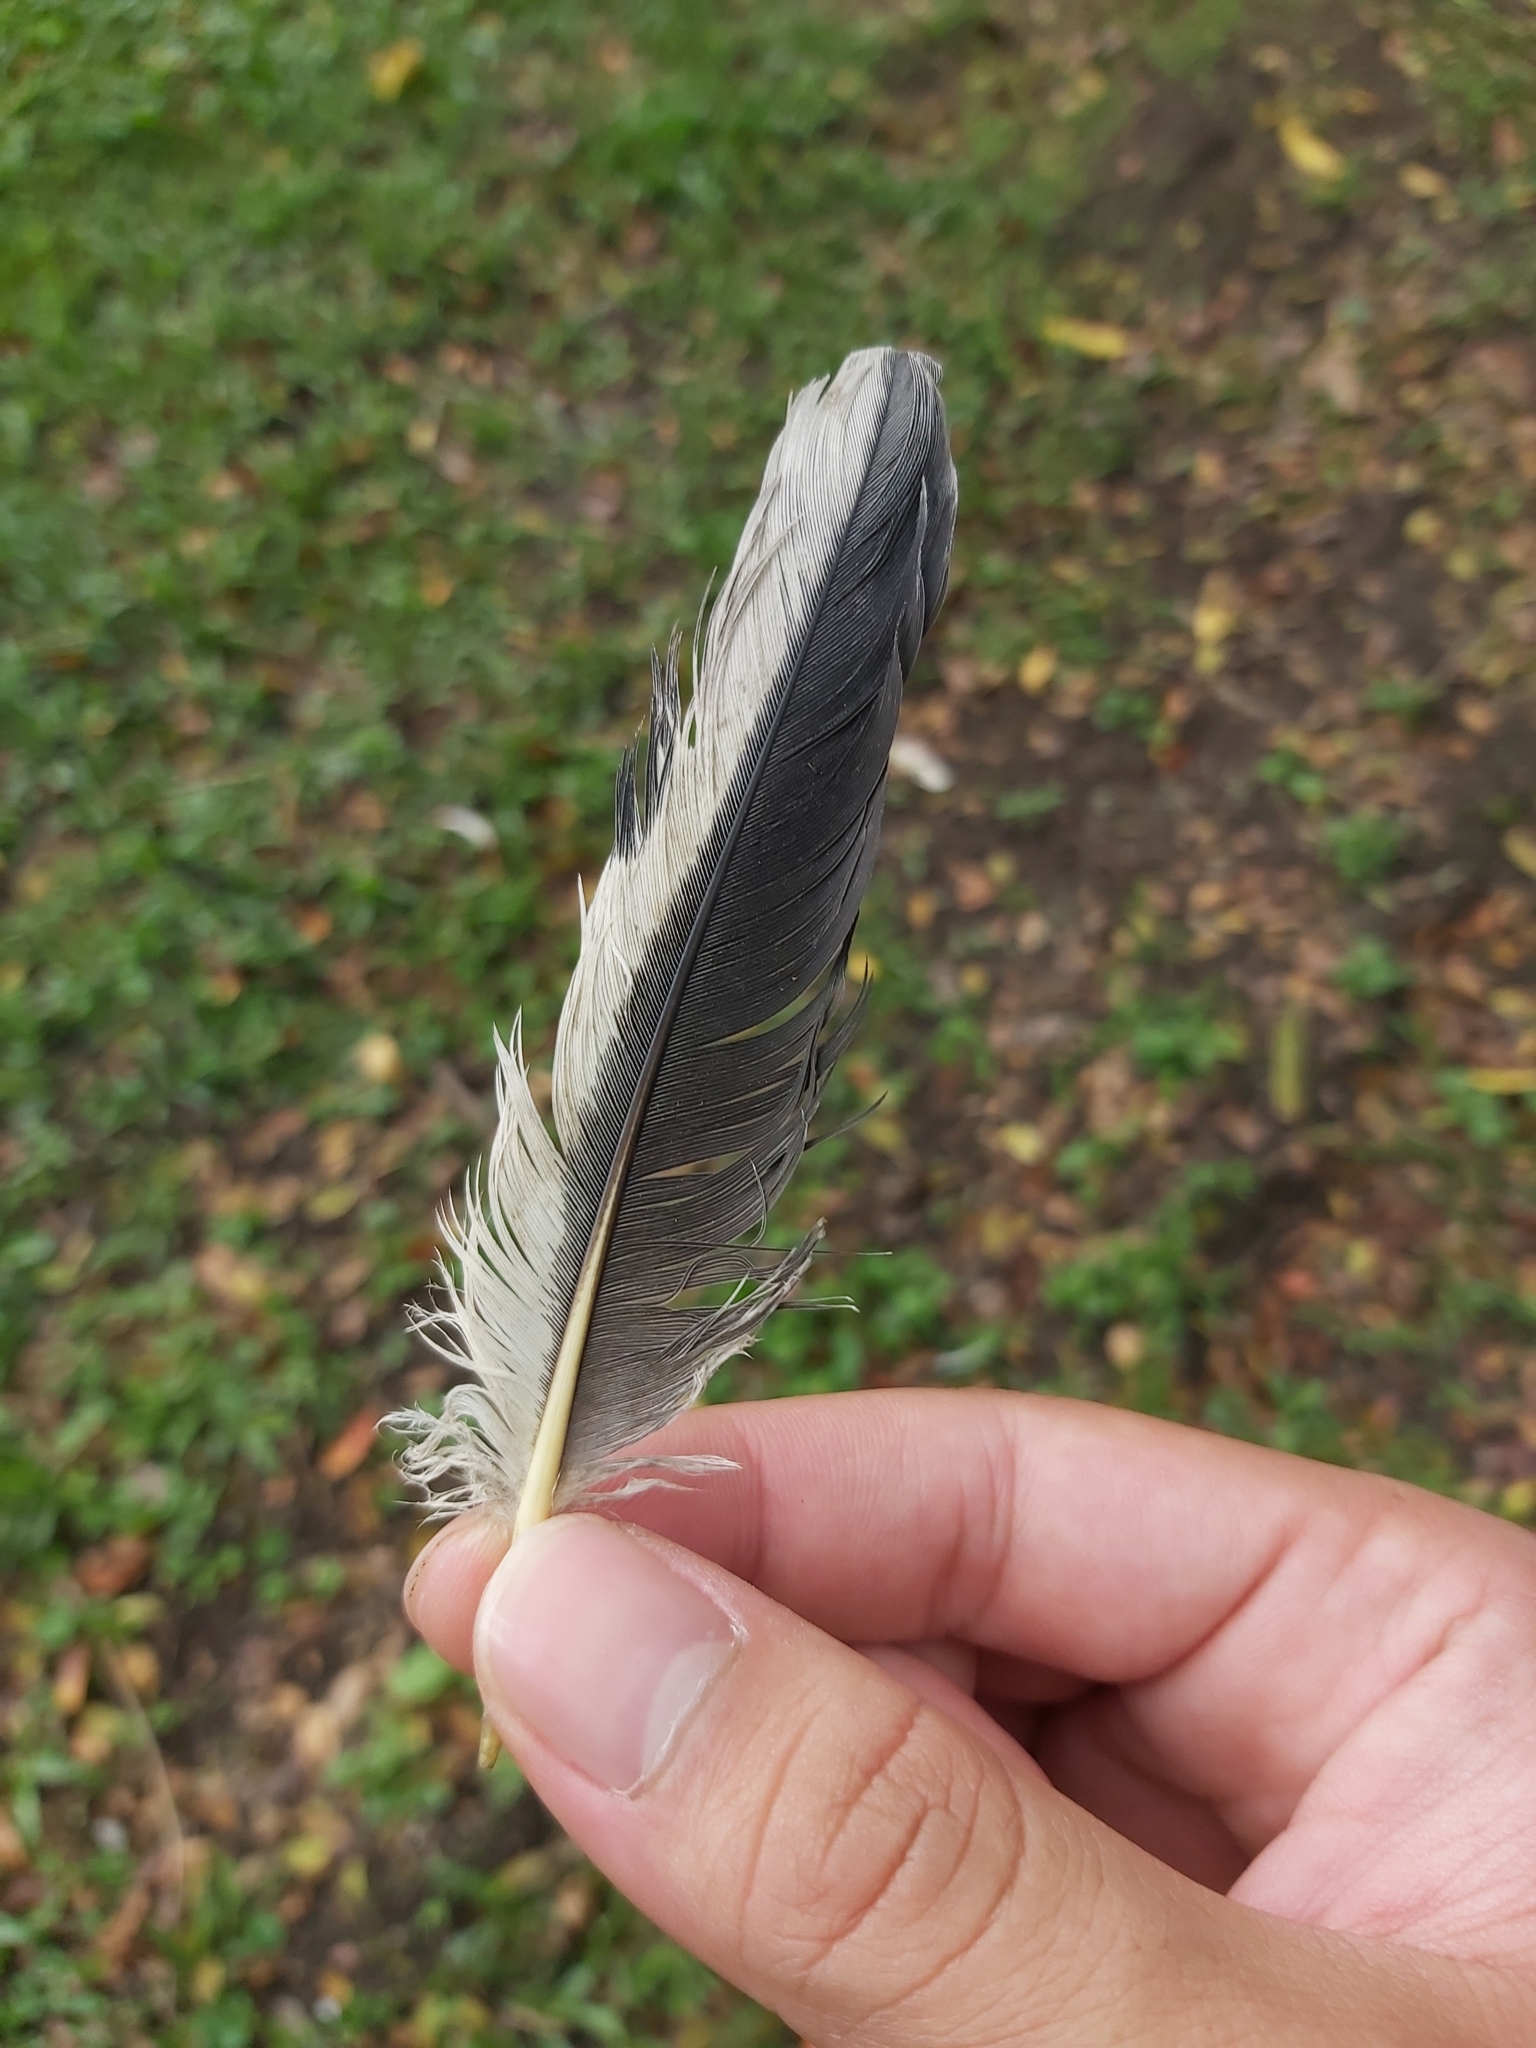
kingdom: Animalia
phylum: Chordata
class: Aves
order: Columbiformes
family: Columbidae
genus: Columba
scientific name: Columba livia
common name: Rock pigeon
